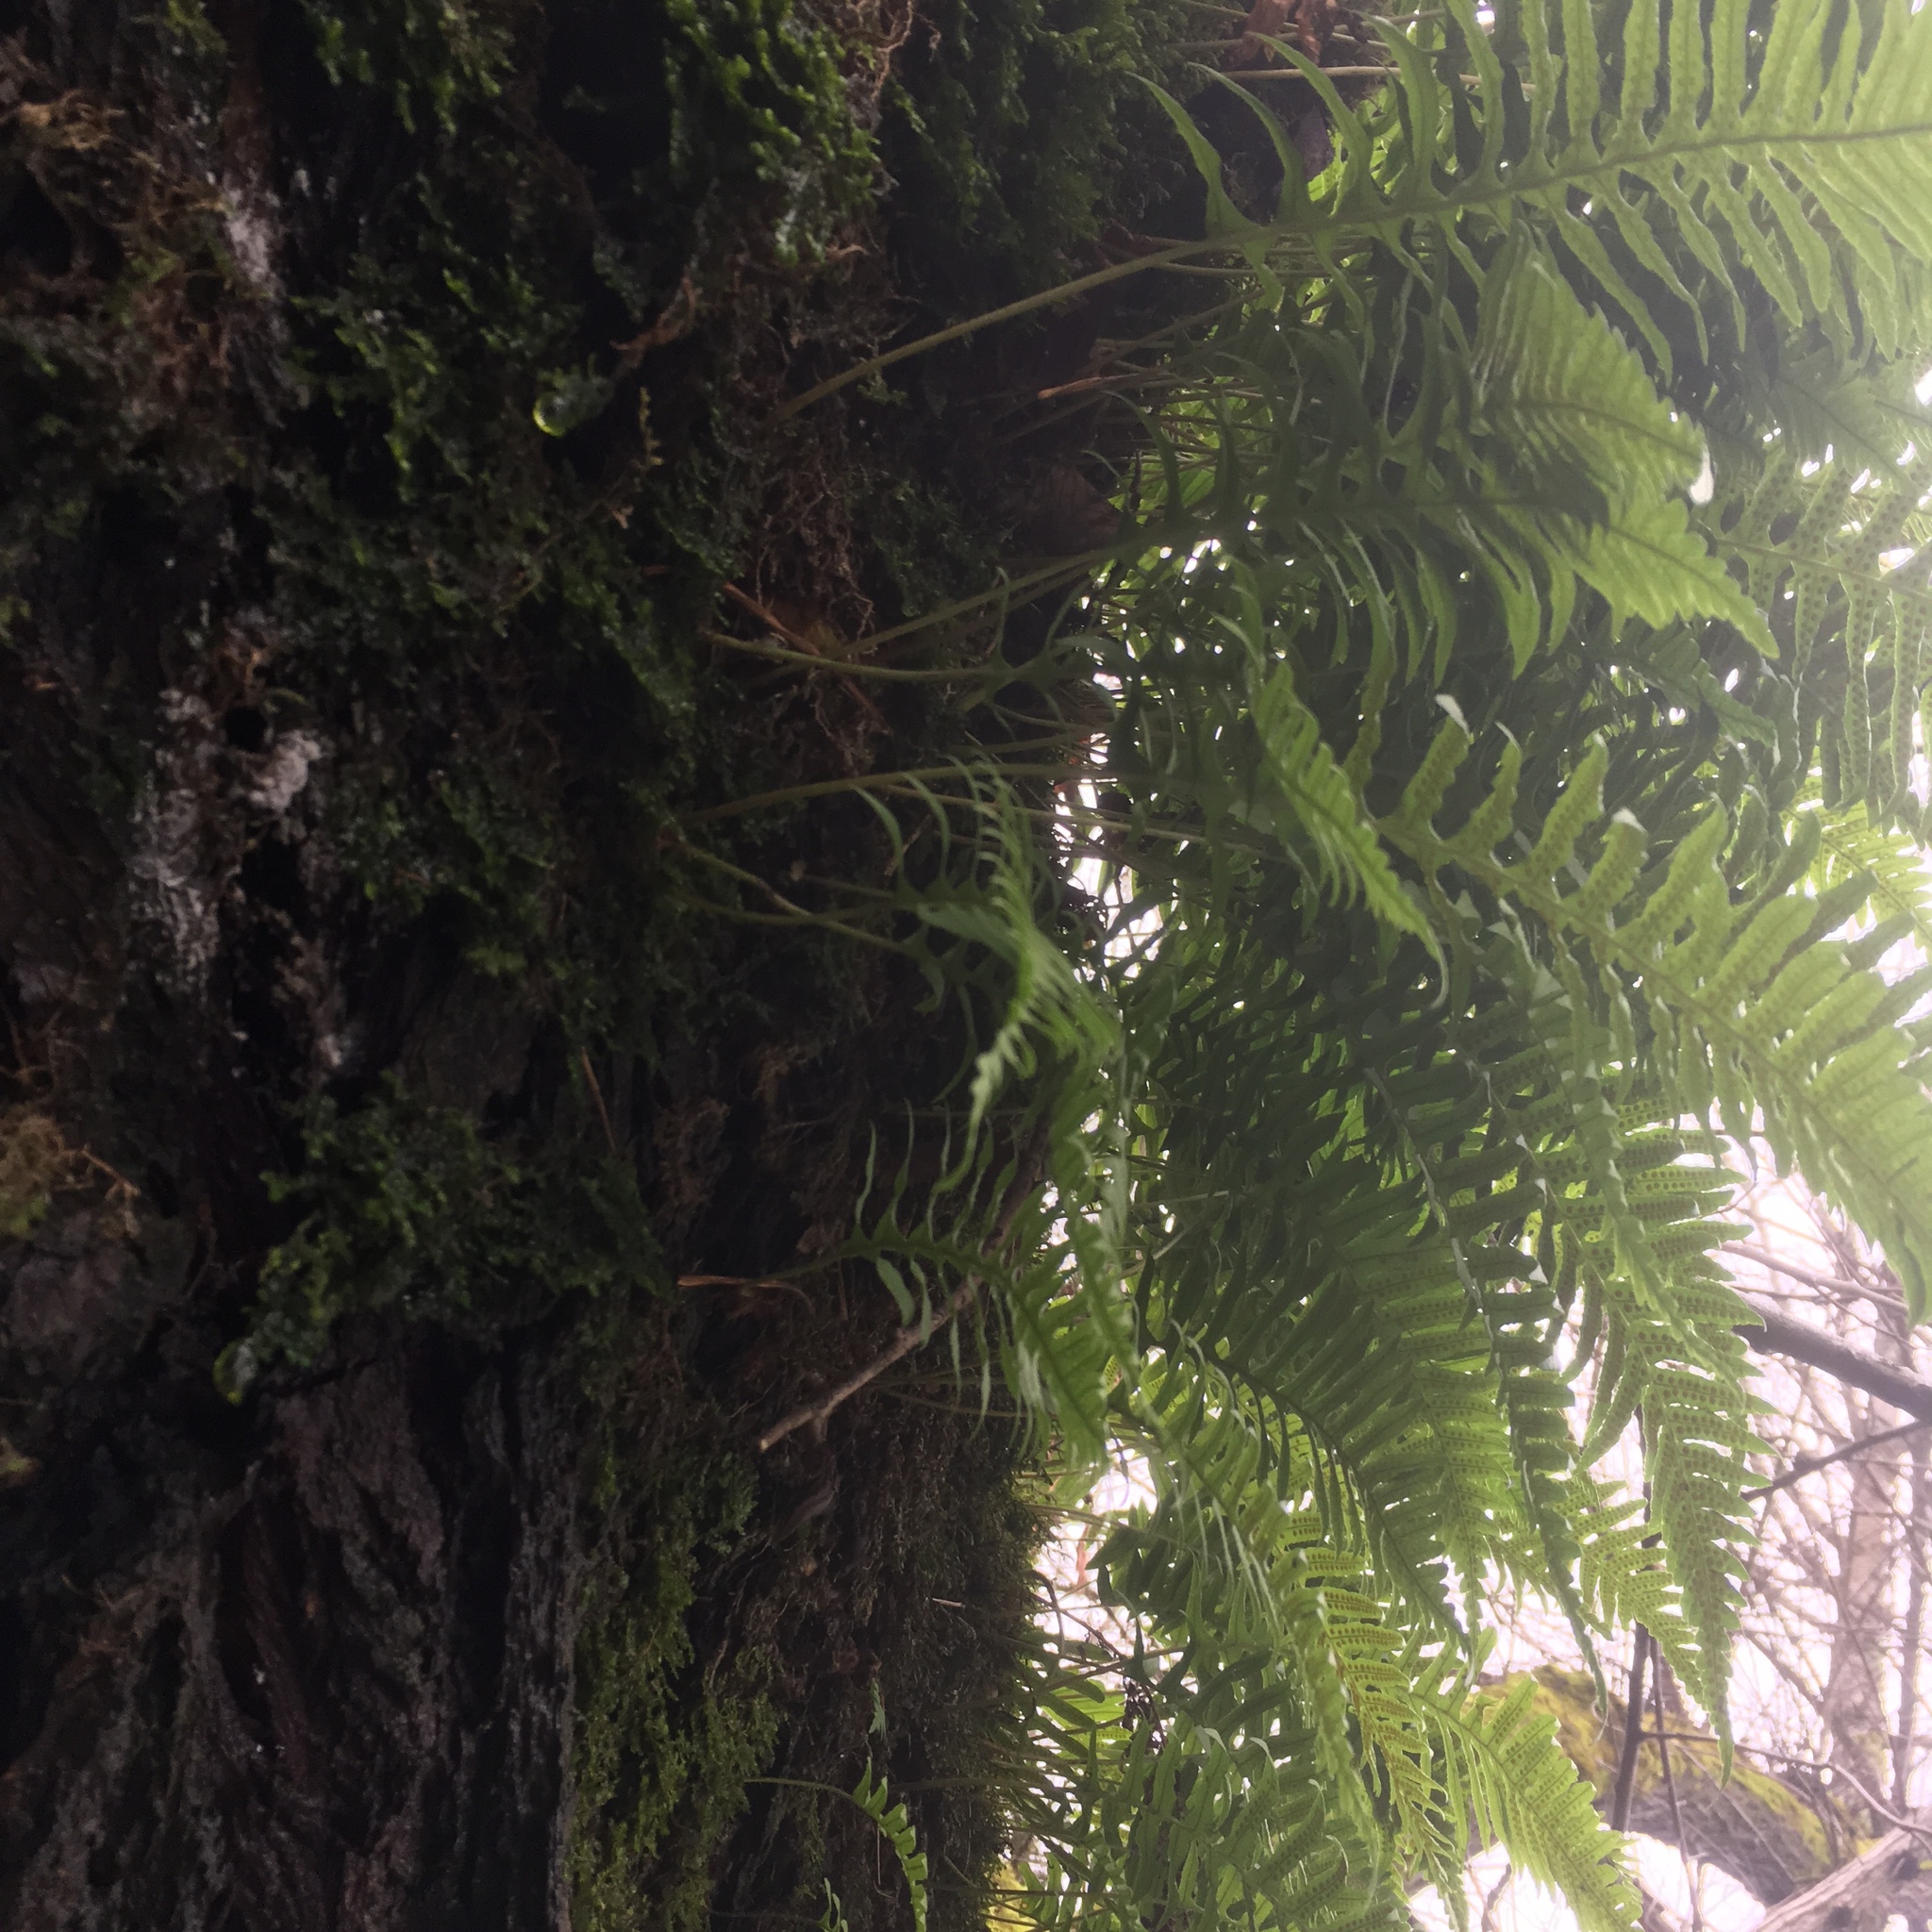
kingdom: Plantae
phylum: Tracheophyta
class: Polypodiopsida
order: Polypodiales
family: Polypodiaceae
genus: Polypodium
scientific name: Polypodium glycyrrhiza
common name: Licorice fern
